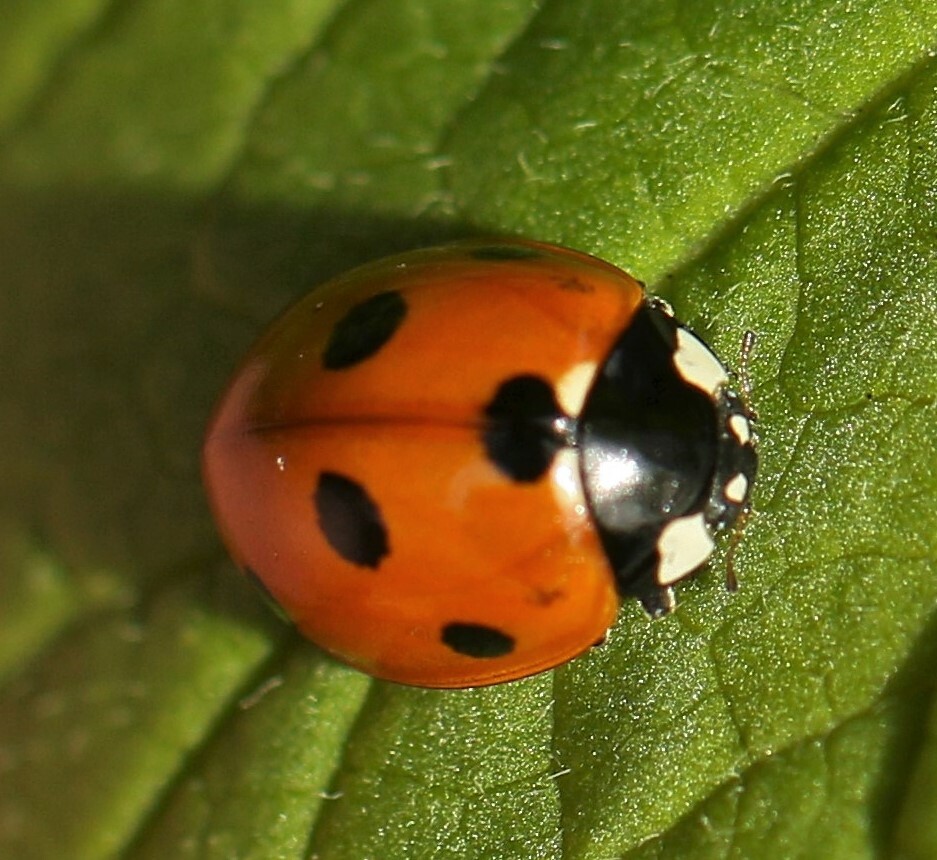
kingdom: Animalia
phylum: Arthropoda
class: Insecta
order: Coleoptera
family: Coccinellidae
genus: Coccinella
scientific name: Coccinella septempunctata
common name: Sevenspotted lady beetle
